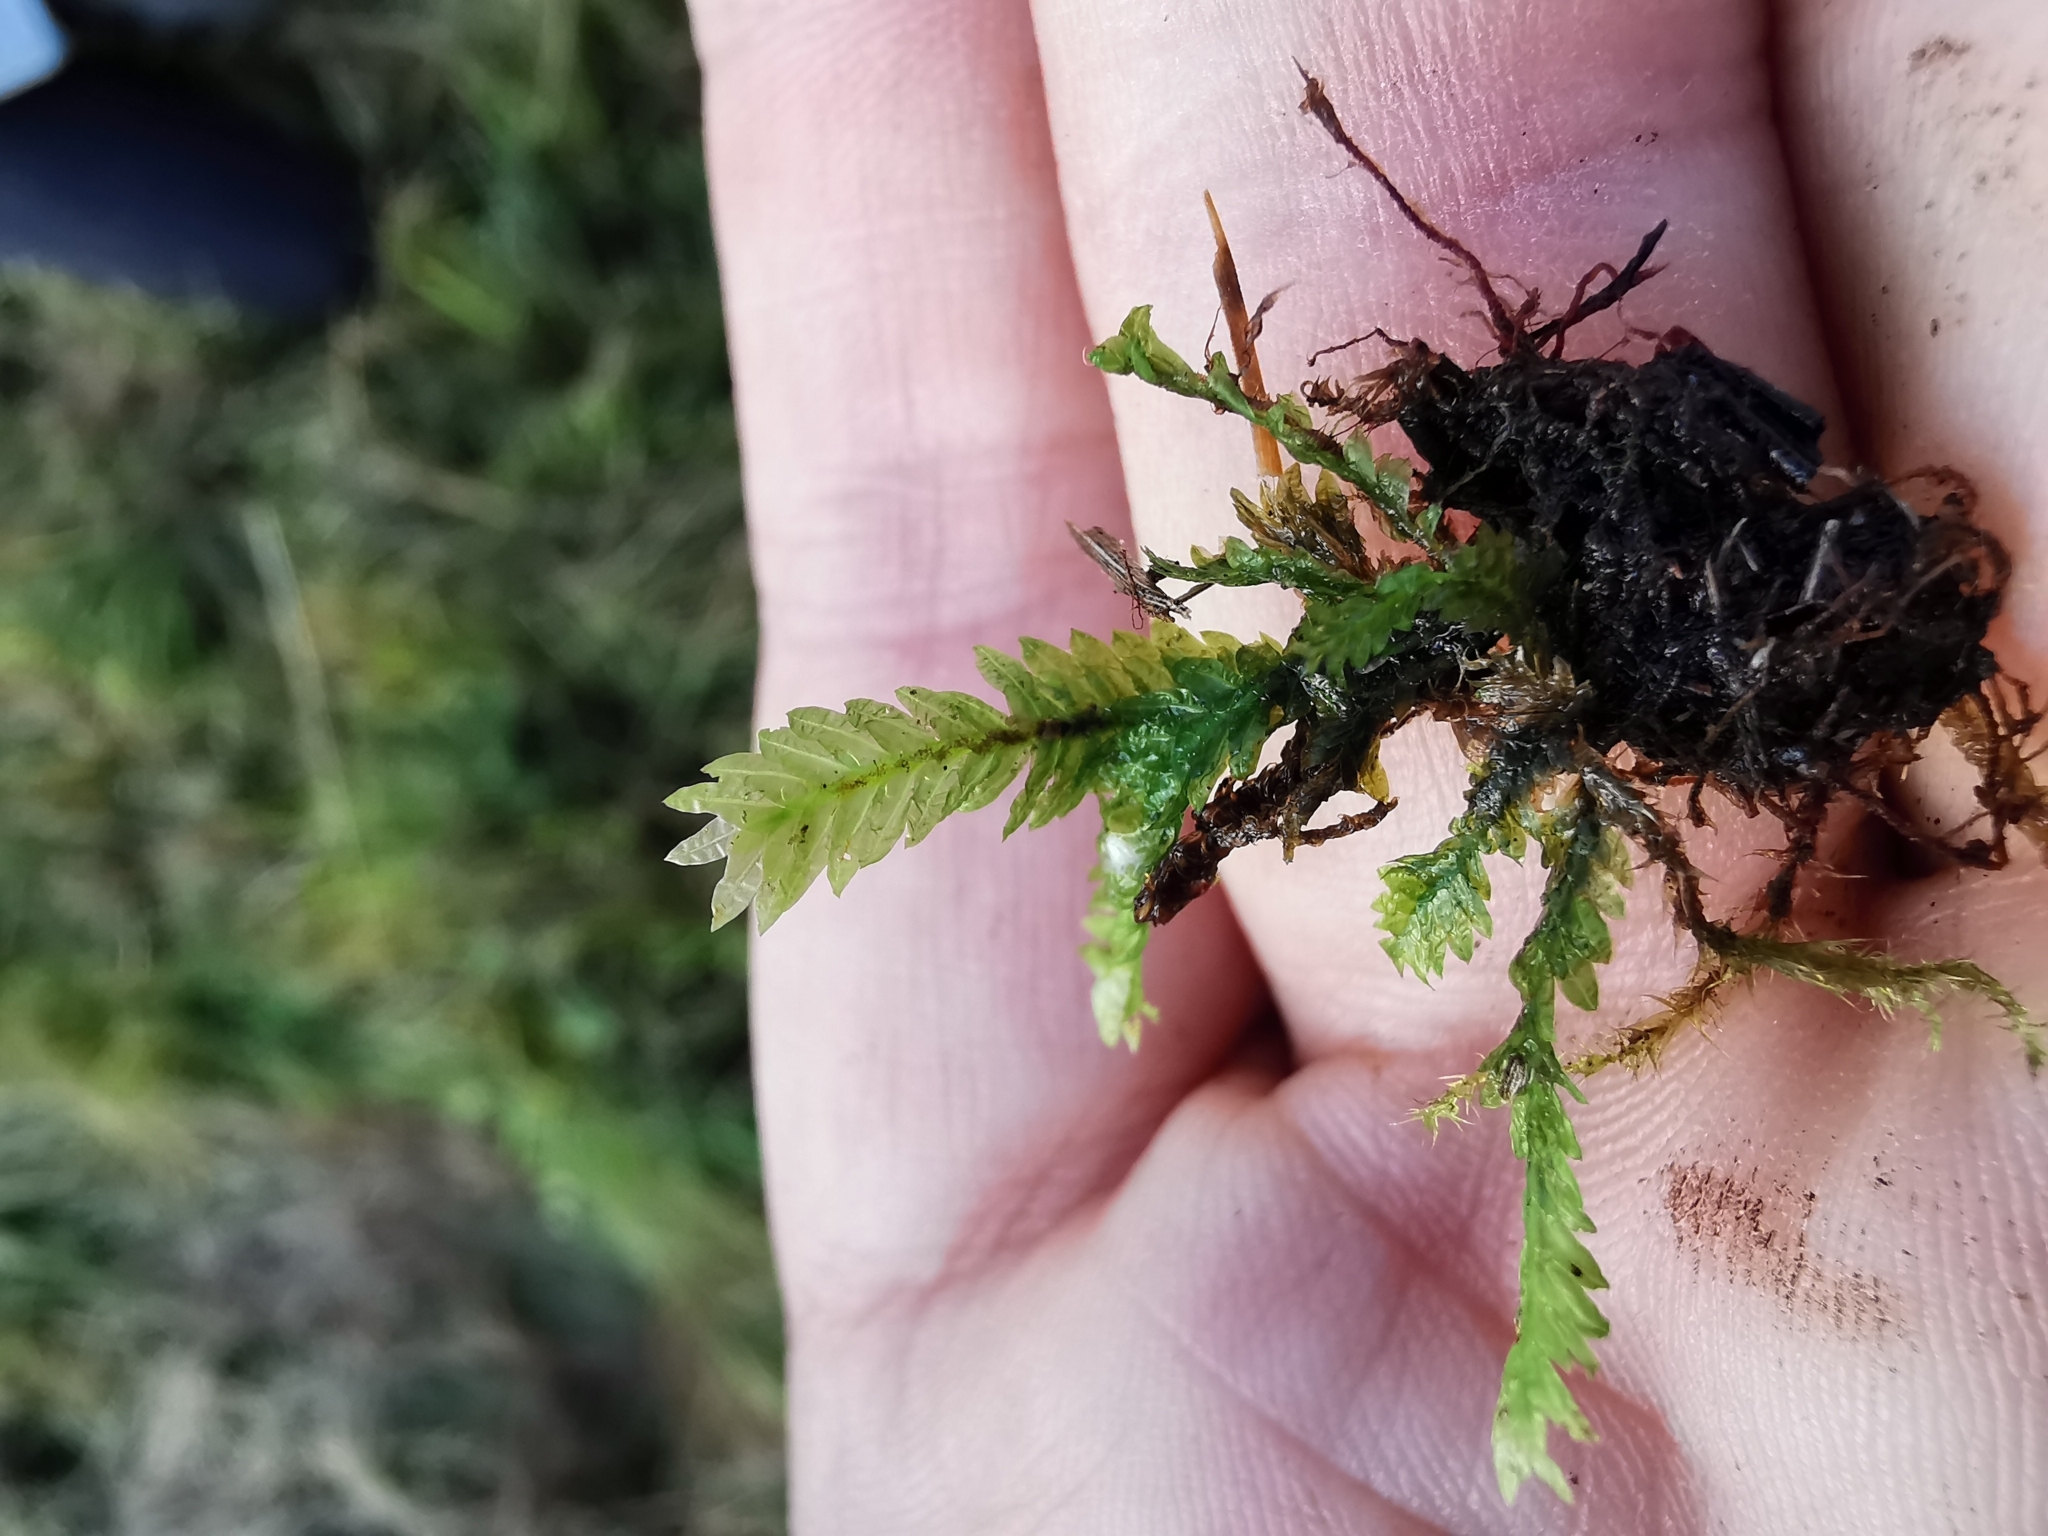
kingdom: Plantae
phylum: Bryophyta
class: Bryopsida
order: Dicranales
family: Fissidentaceae
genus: Fissidens
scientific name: Fissidens adianthoides
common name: Maidenhair pocket moss
